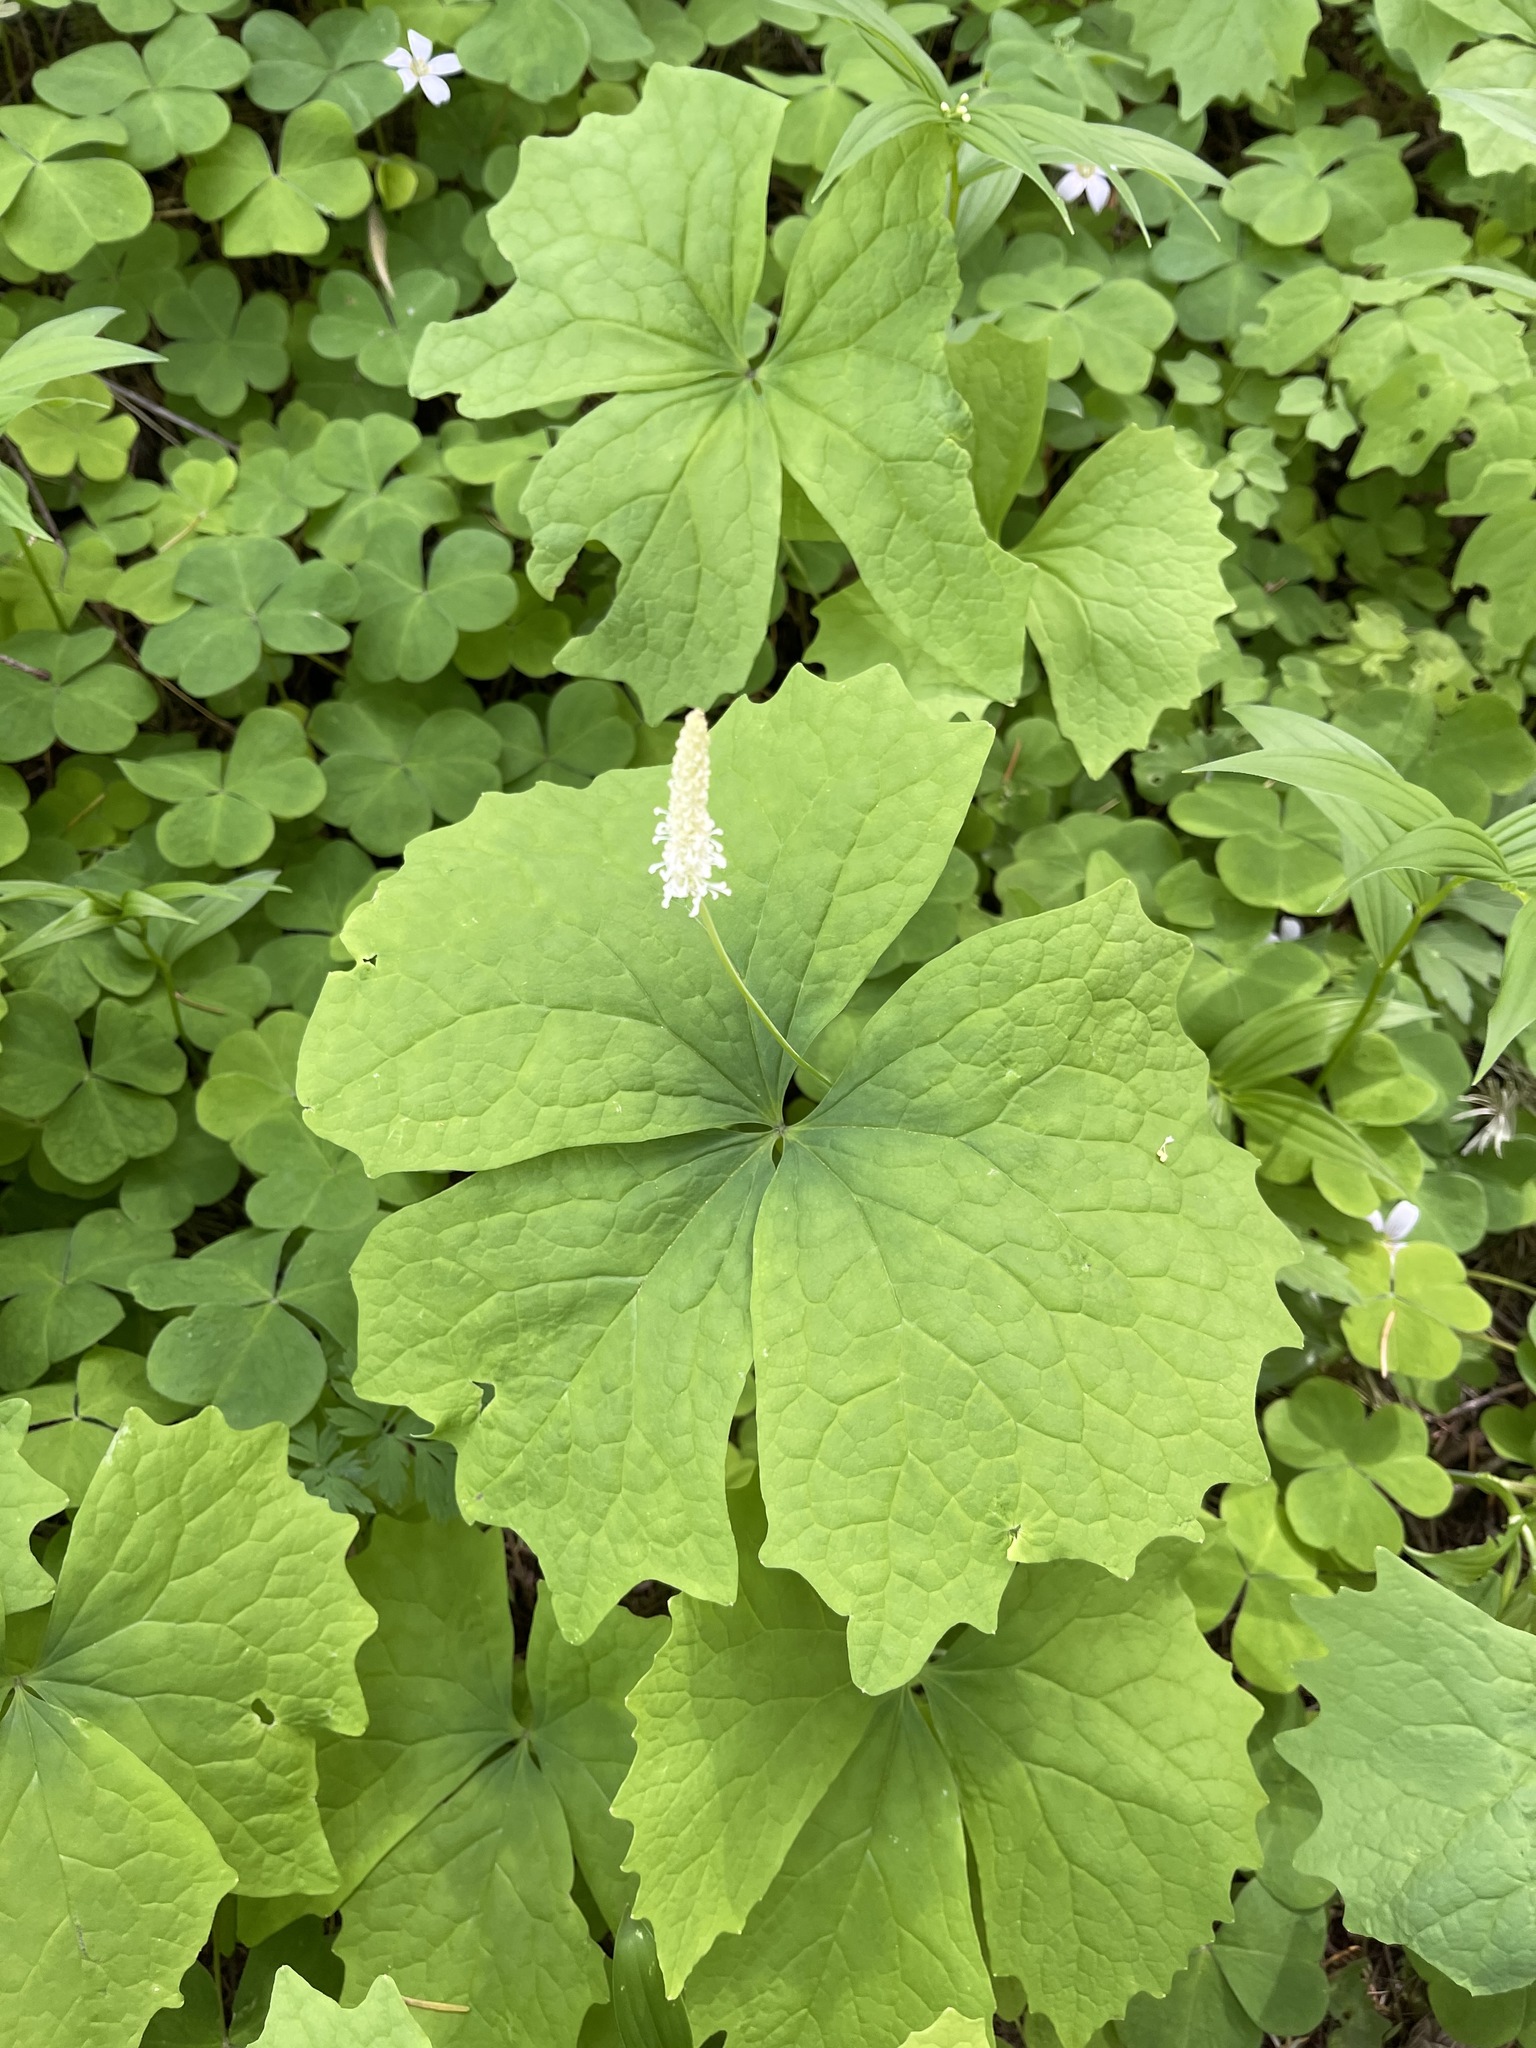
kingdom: Plantae
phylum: Tracheophyta
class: Magnoliopsida
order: Ranunculales
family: Berberidaceae
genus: Achlys
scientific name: Achlys triphylla
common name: Vanilla-leaf
